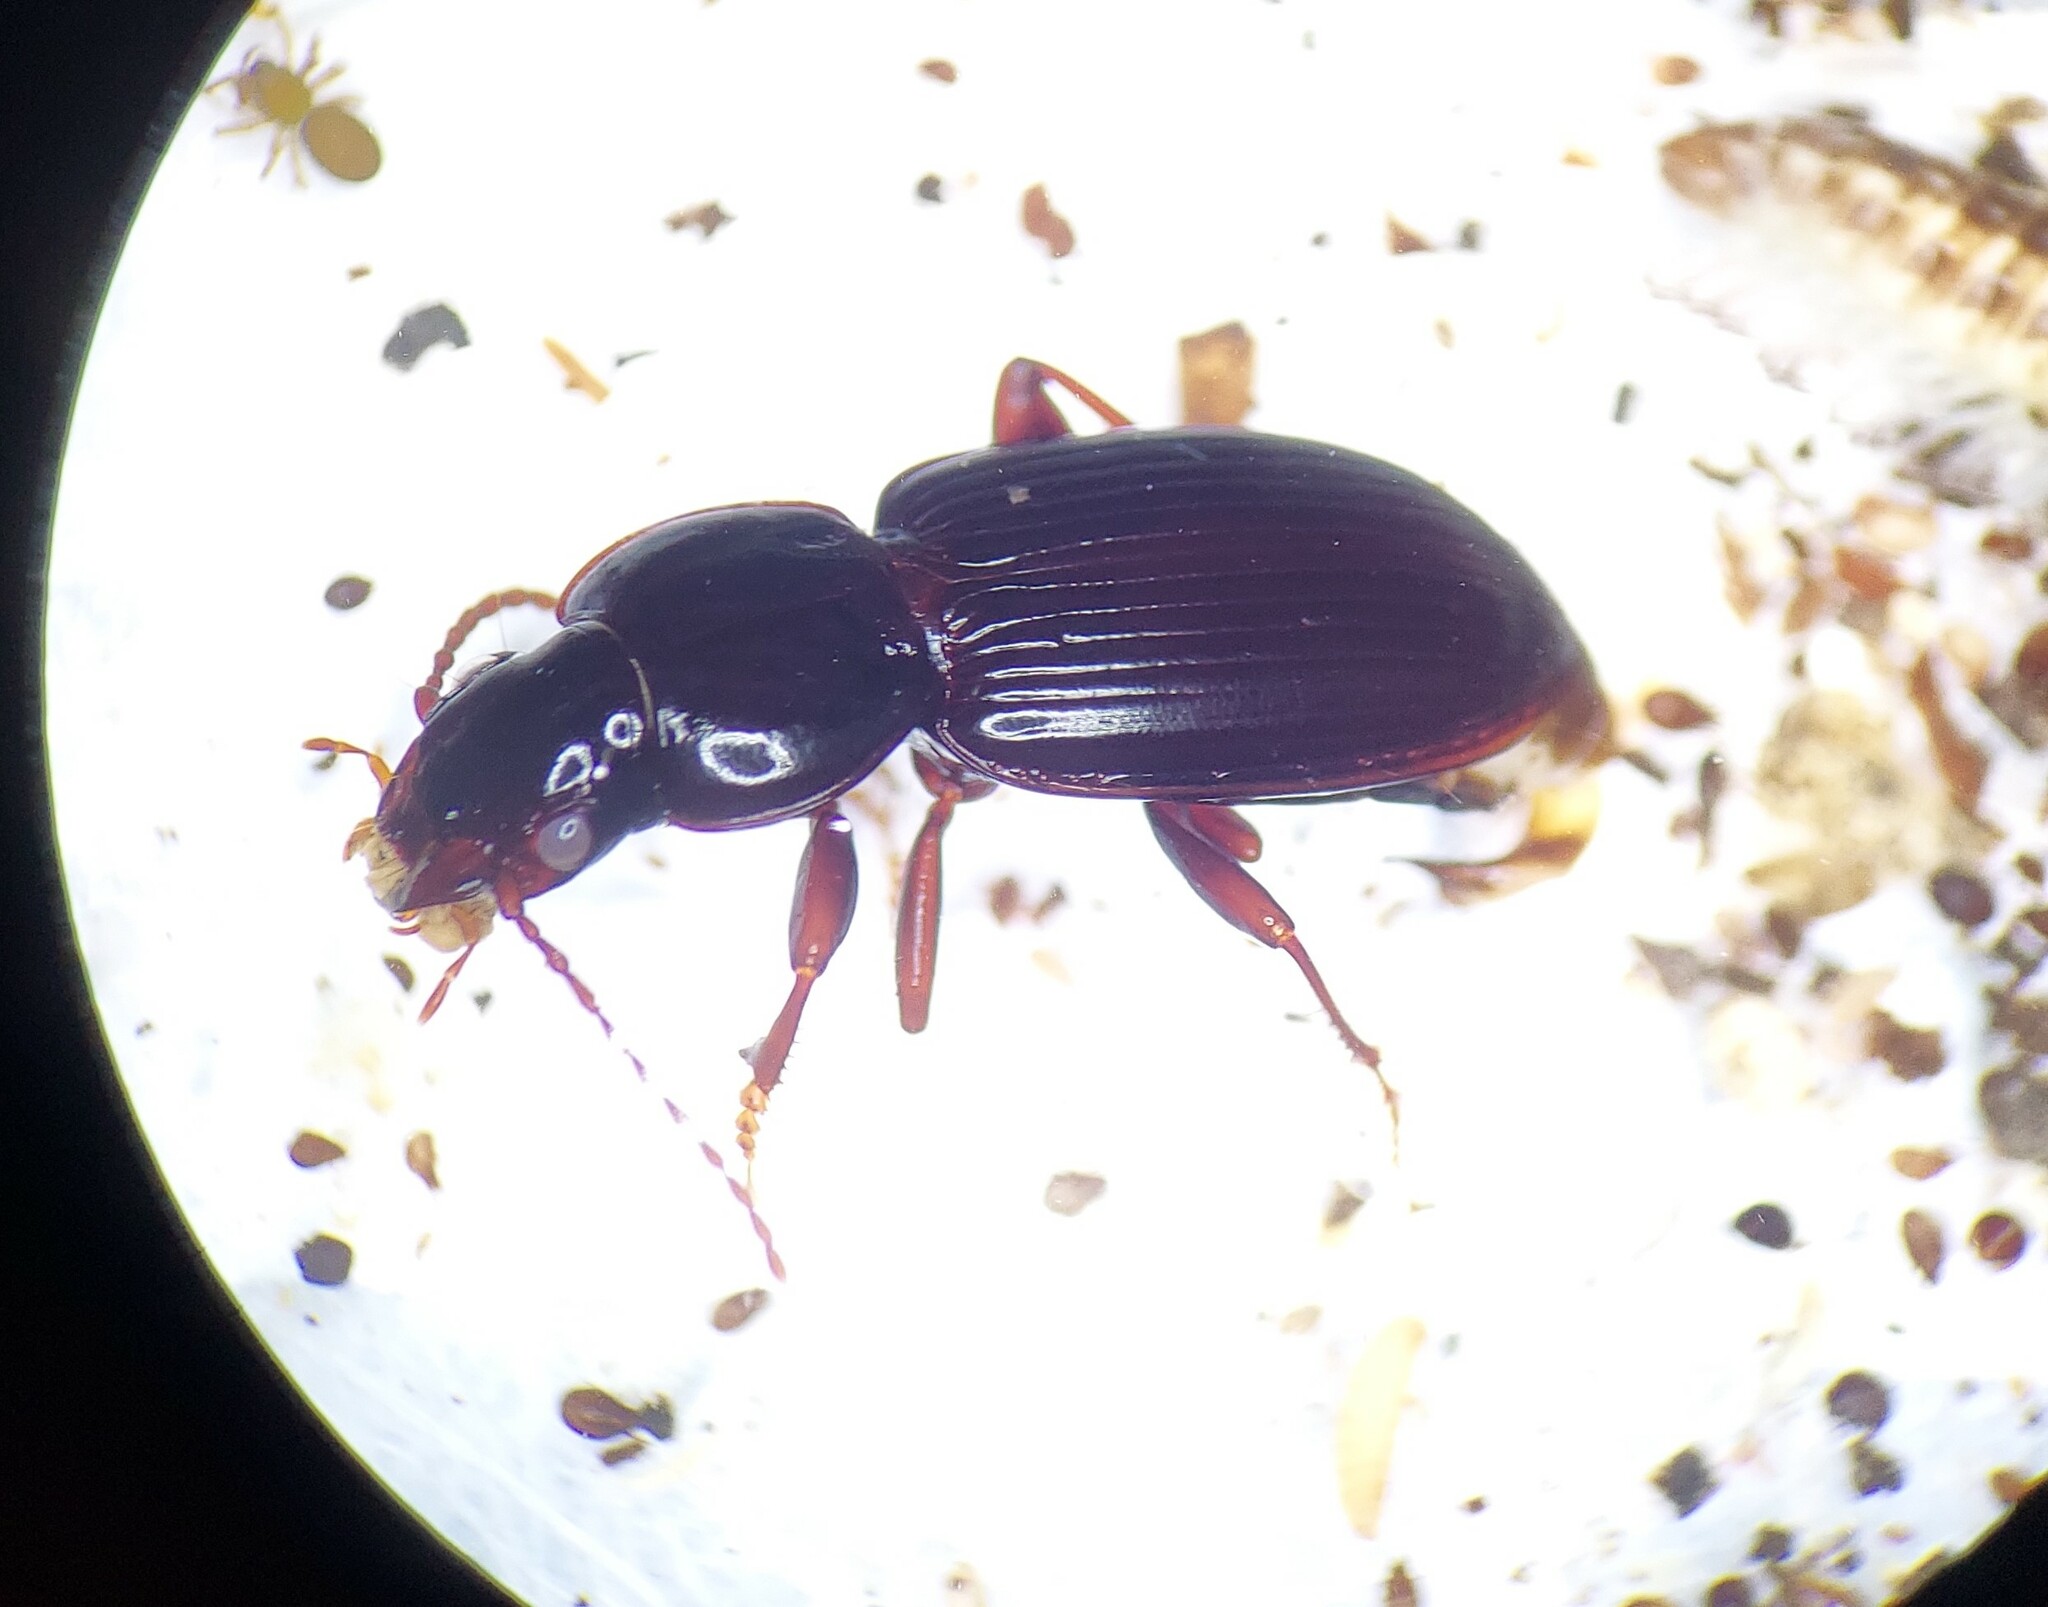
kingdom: Animalia
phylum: Arthropoda
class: Insecta
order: Coleoptera
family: Carabidae
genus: Pterostichus
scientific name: Pterostichus sayanus
